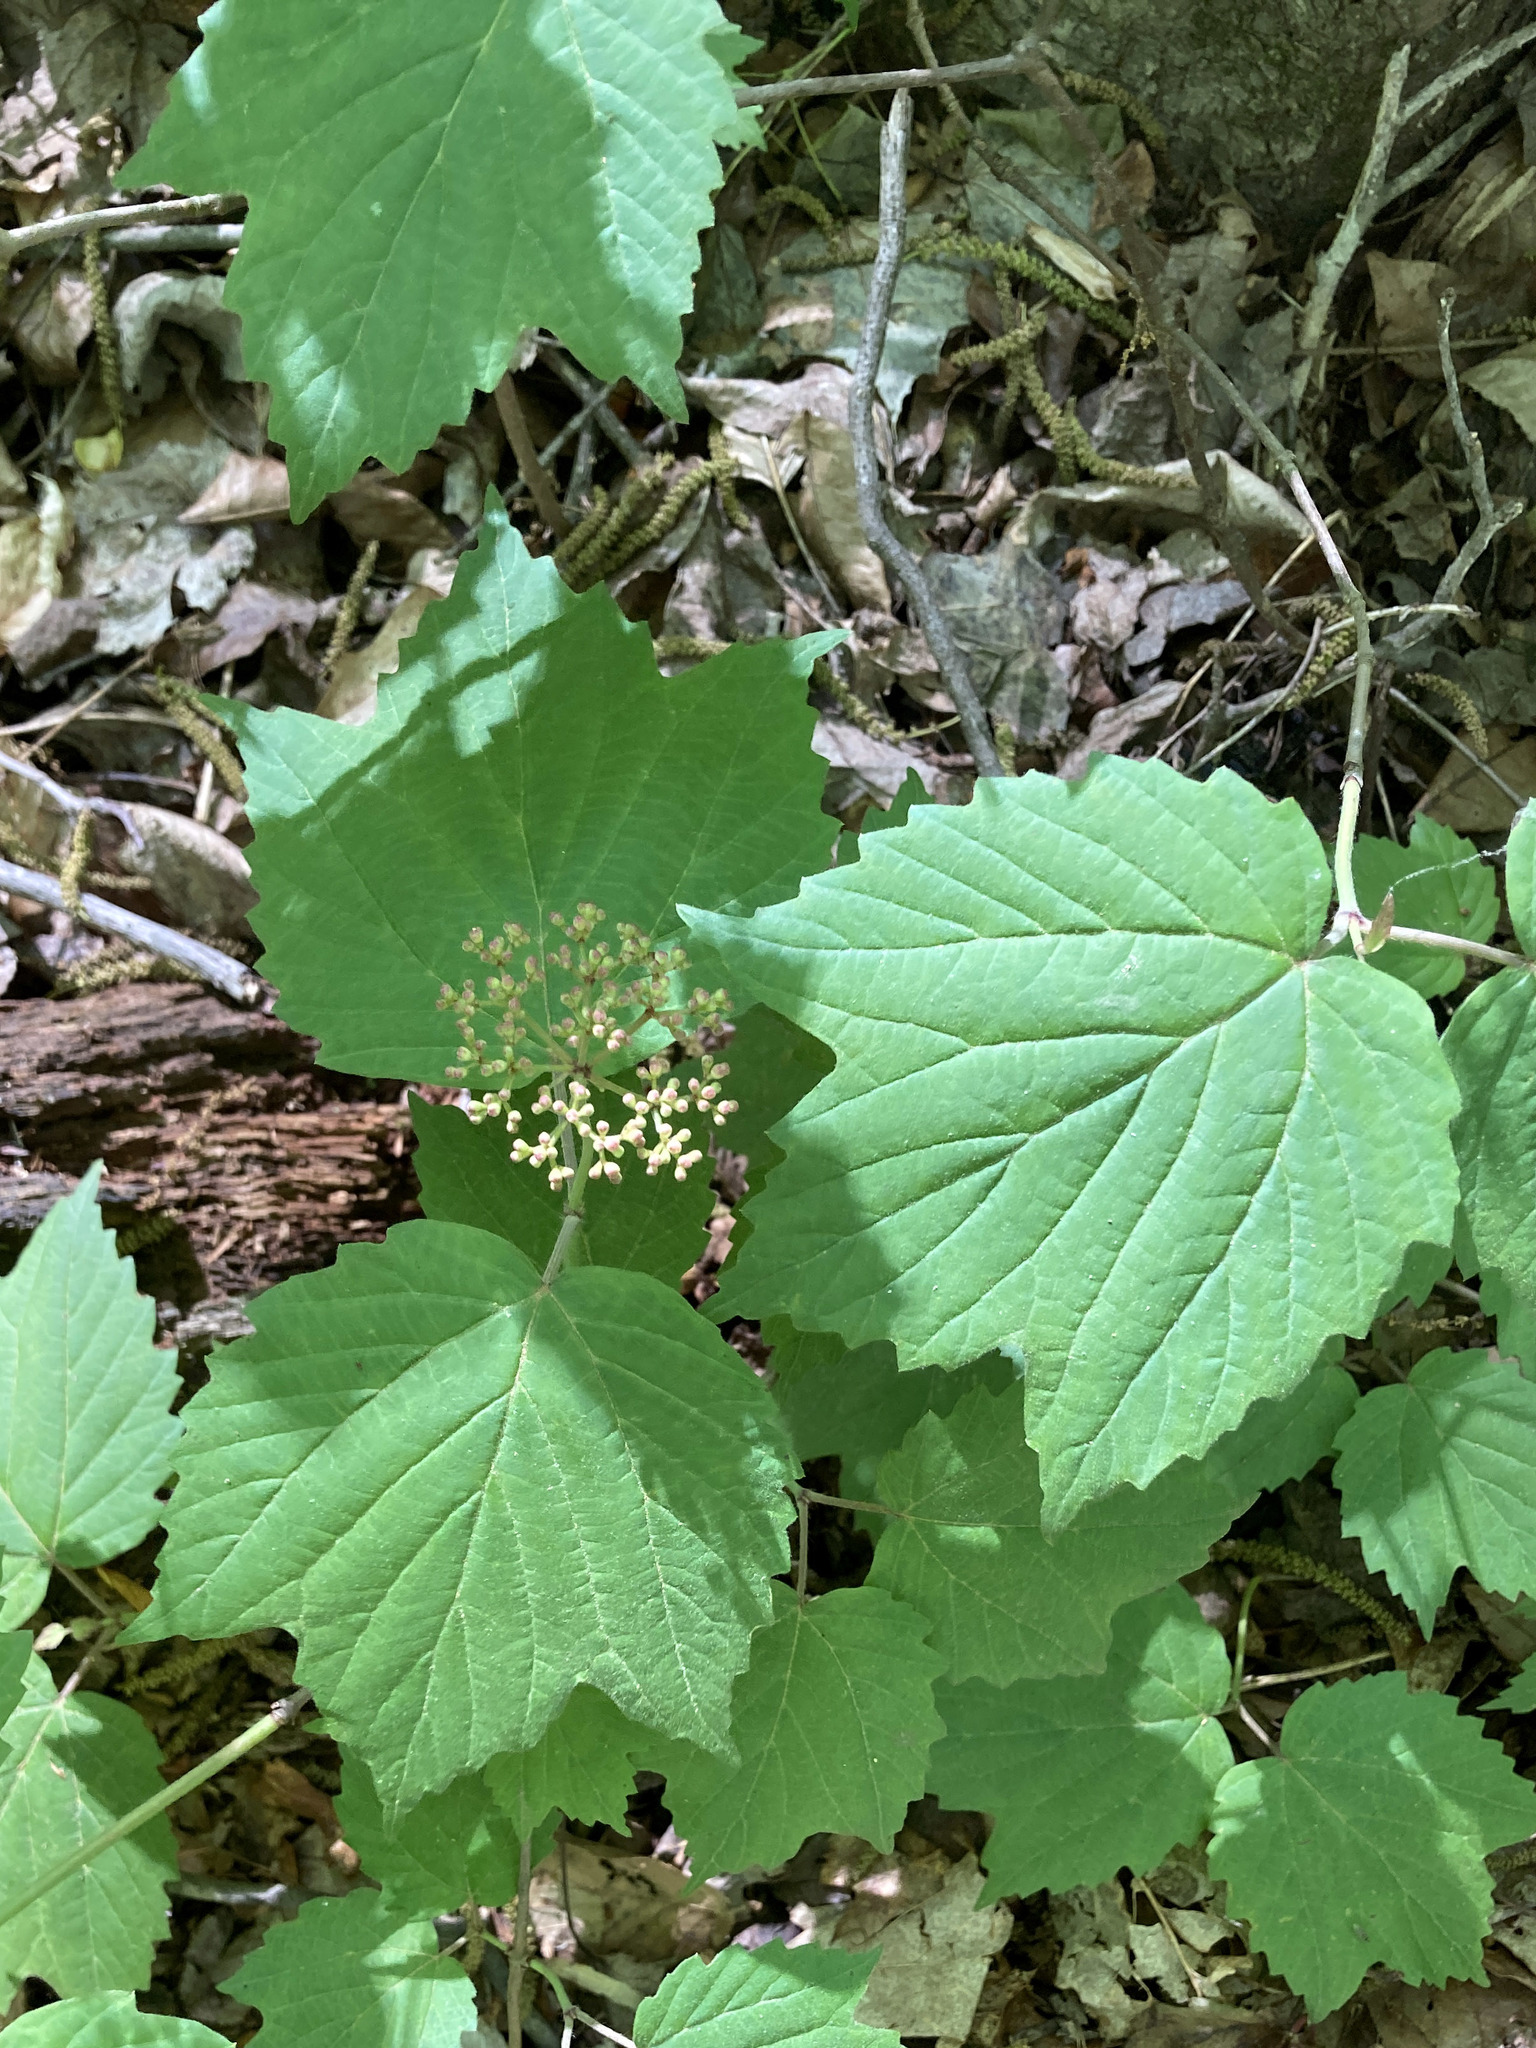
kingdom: Plantae
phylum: Tracheophyta
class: Magnoliopsida
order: Dipsacales
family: Viburnaceae
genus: Viburnum
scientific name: Viburnum acerifolium
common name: Dockmackie
